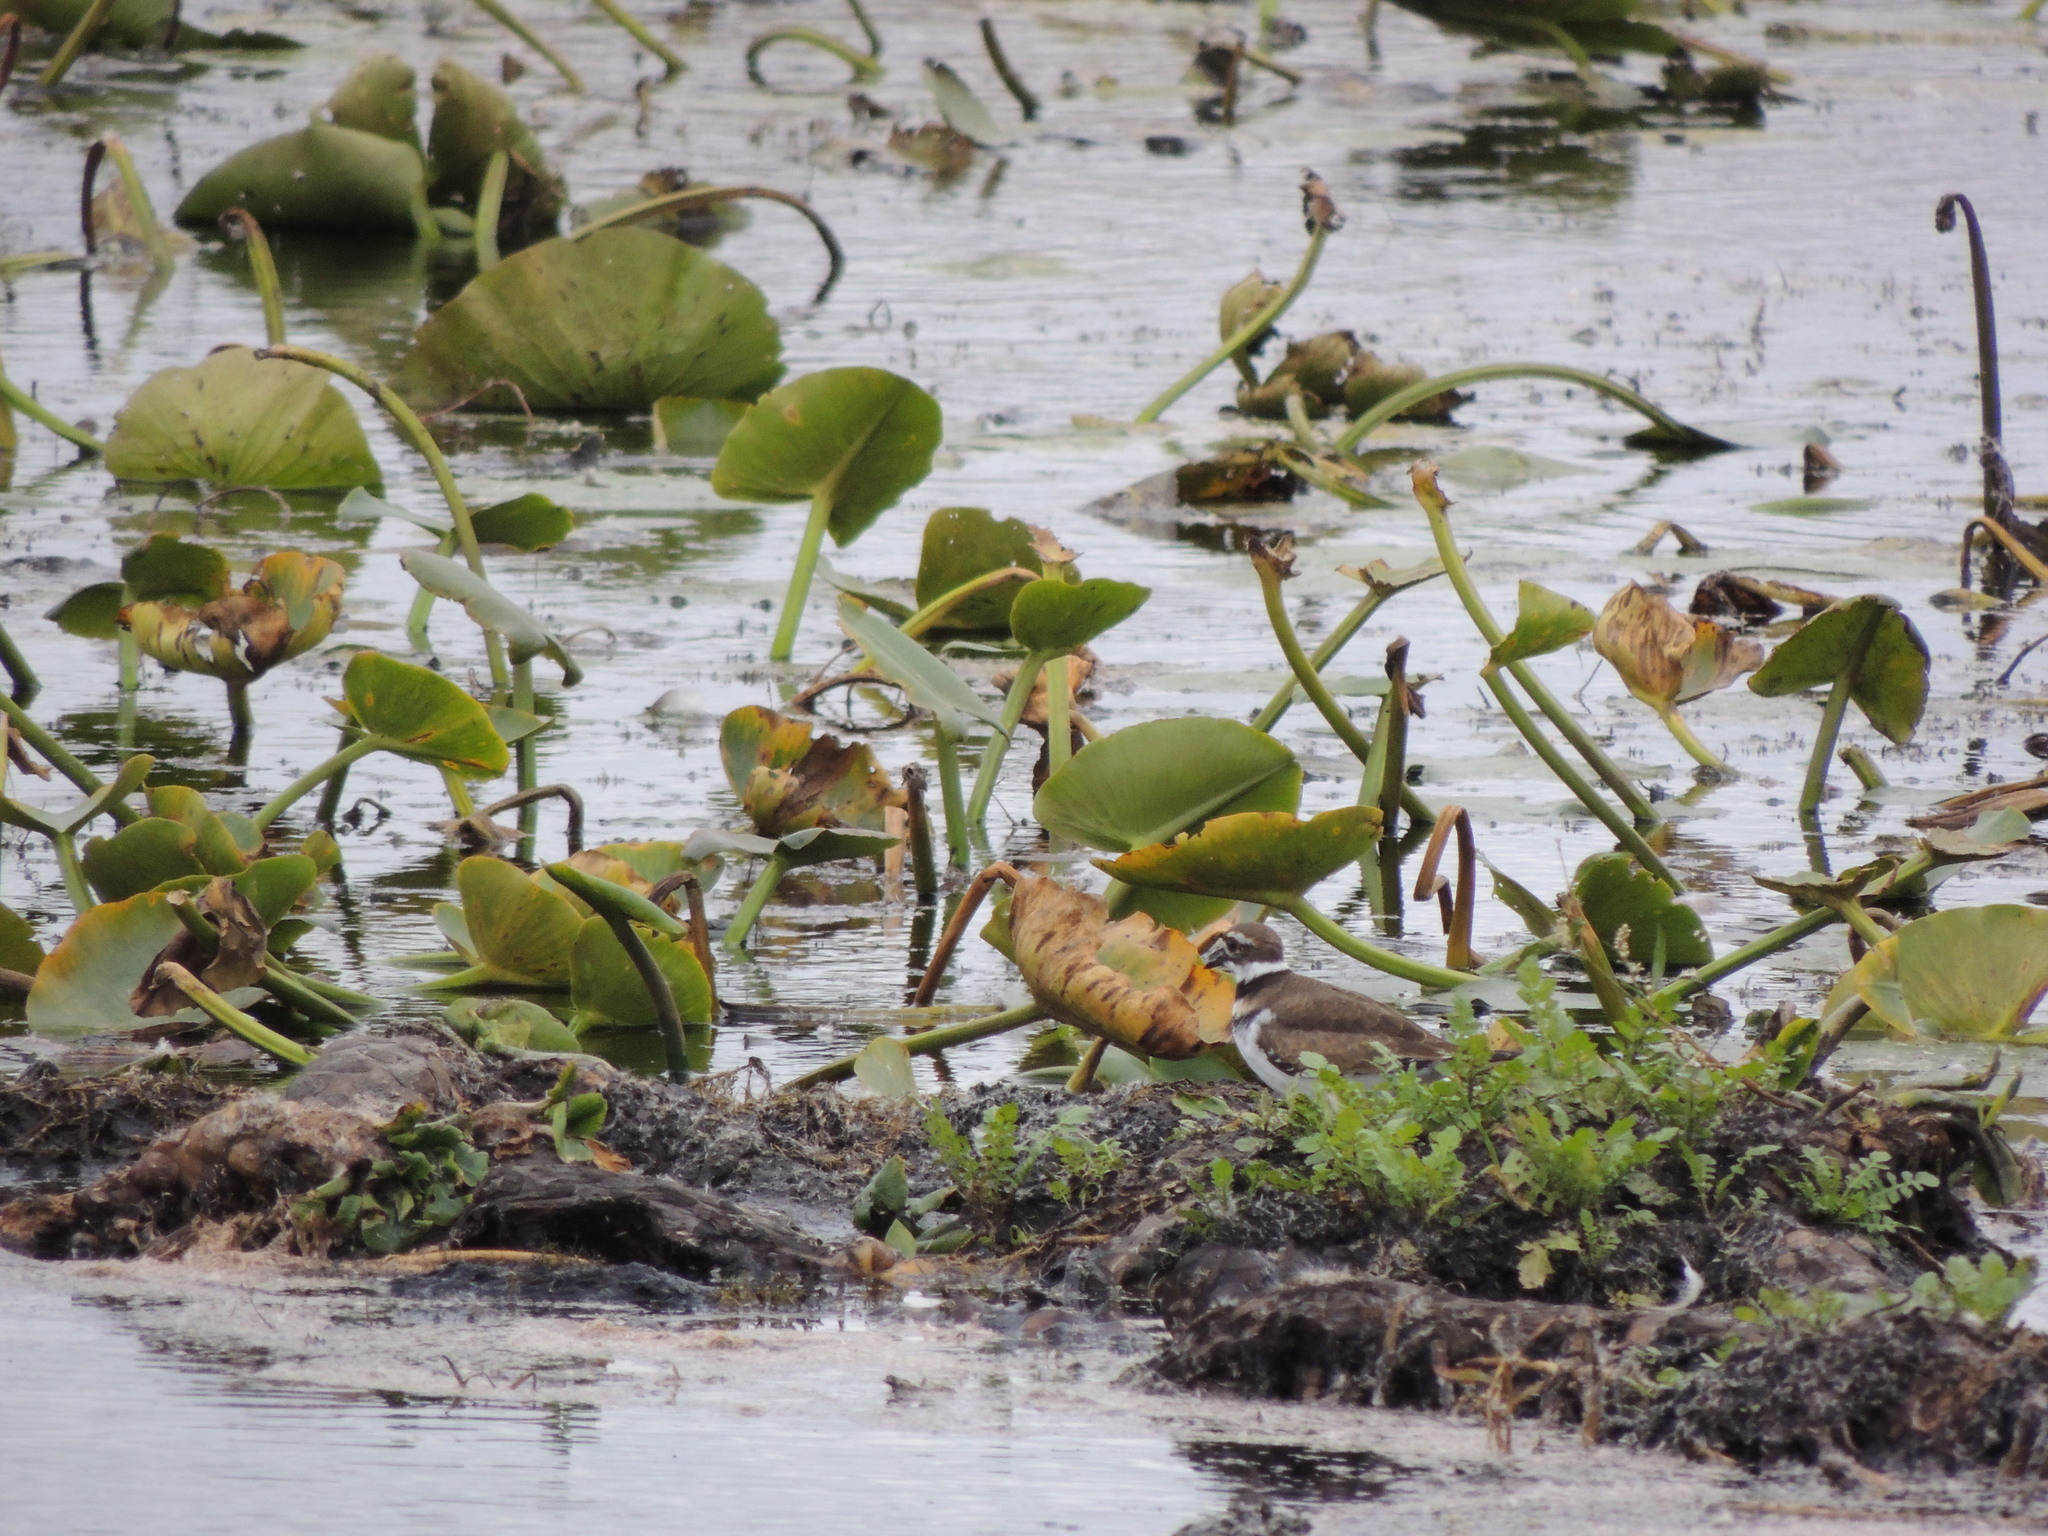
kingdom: Animalia
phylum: Chordata
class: Aves
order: Charadriiformes
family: Charadriidae
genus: Charadrius
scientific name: Charadrius vociferus
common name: Killdeer
